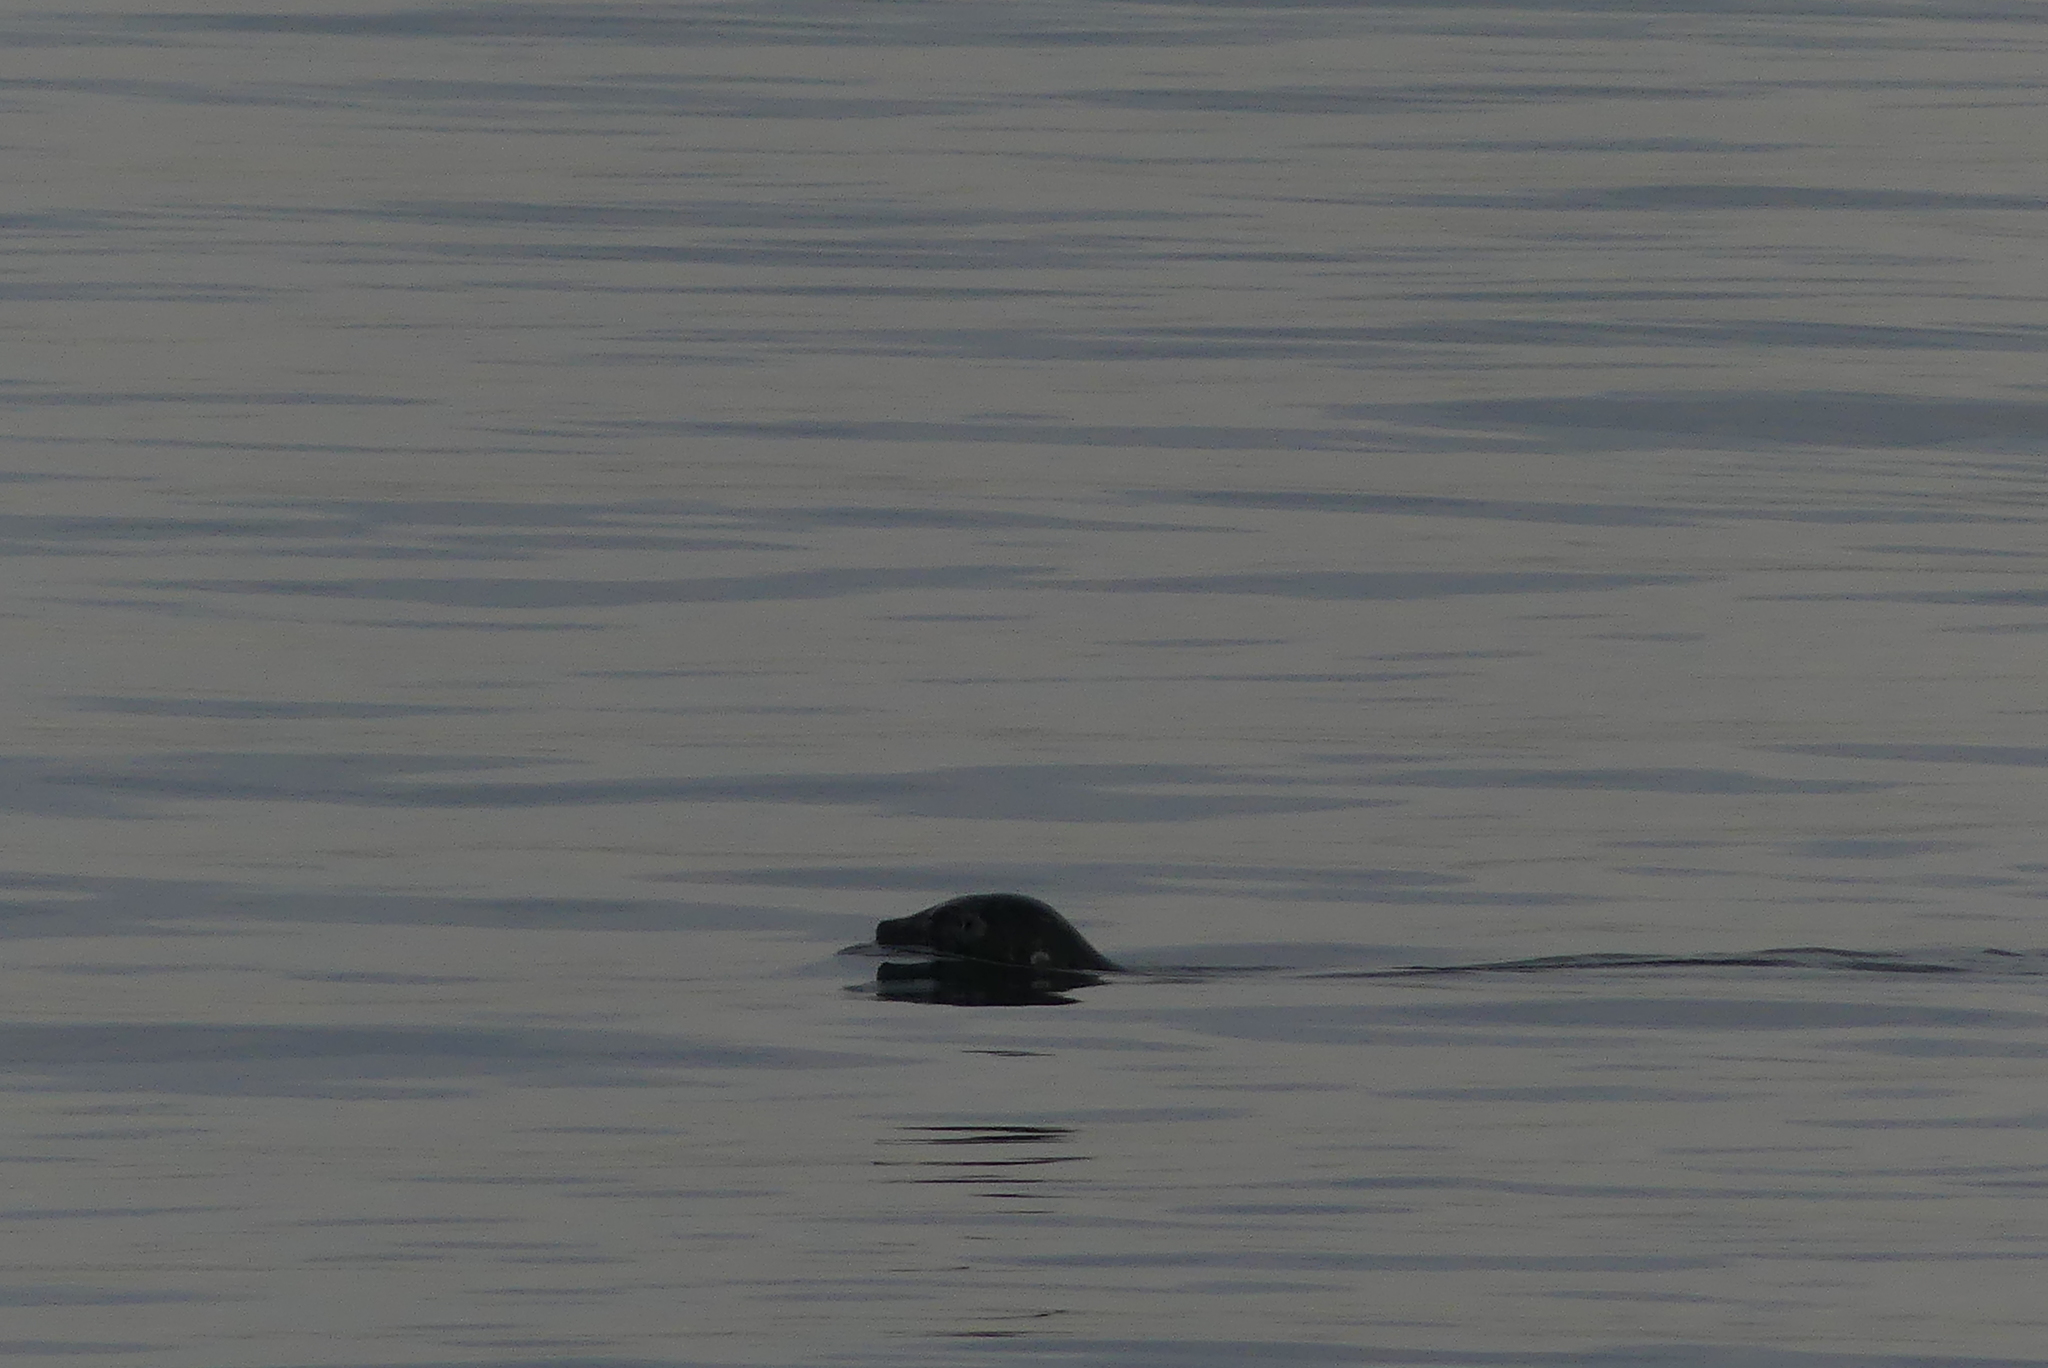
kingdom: Animalia
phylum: Chordata
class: Mammalia
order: Carnivora
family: Phocidae
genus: Phoca
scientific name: Phoca vitulina
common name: Harbor seal
